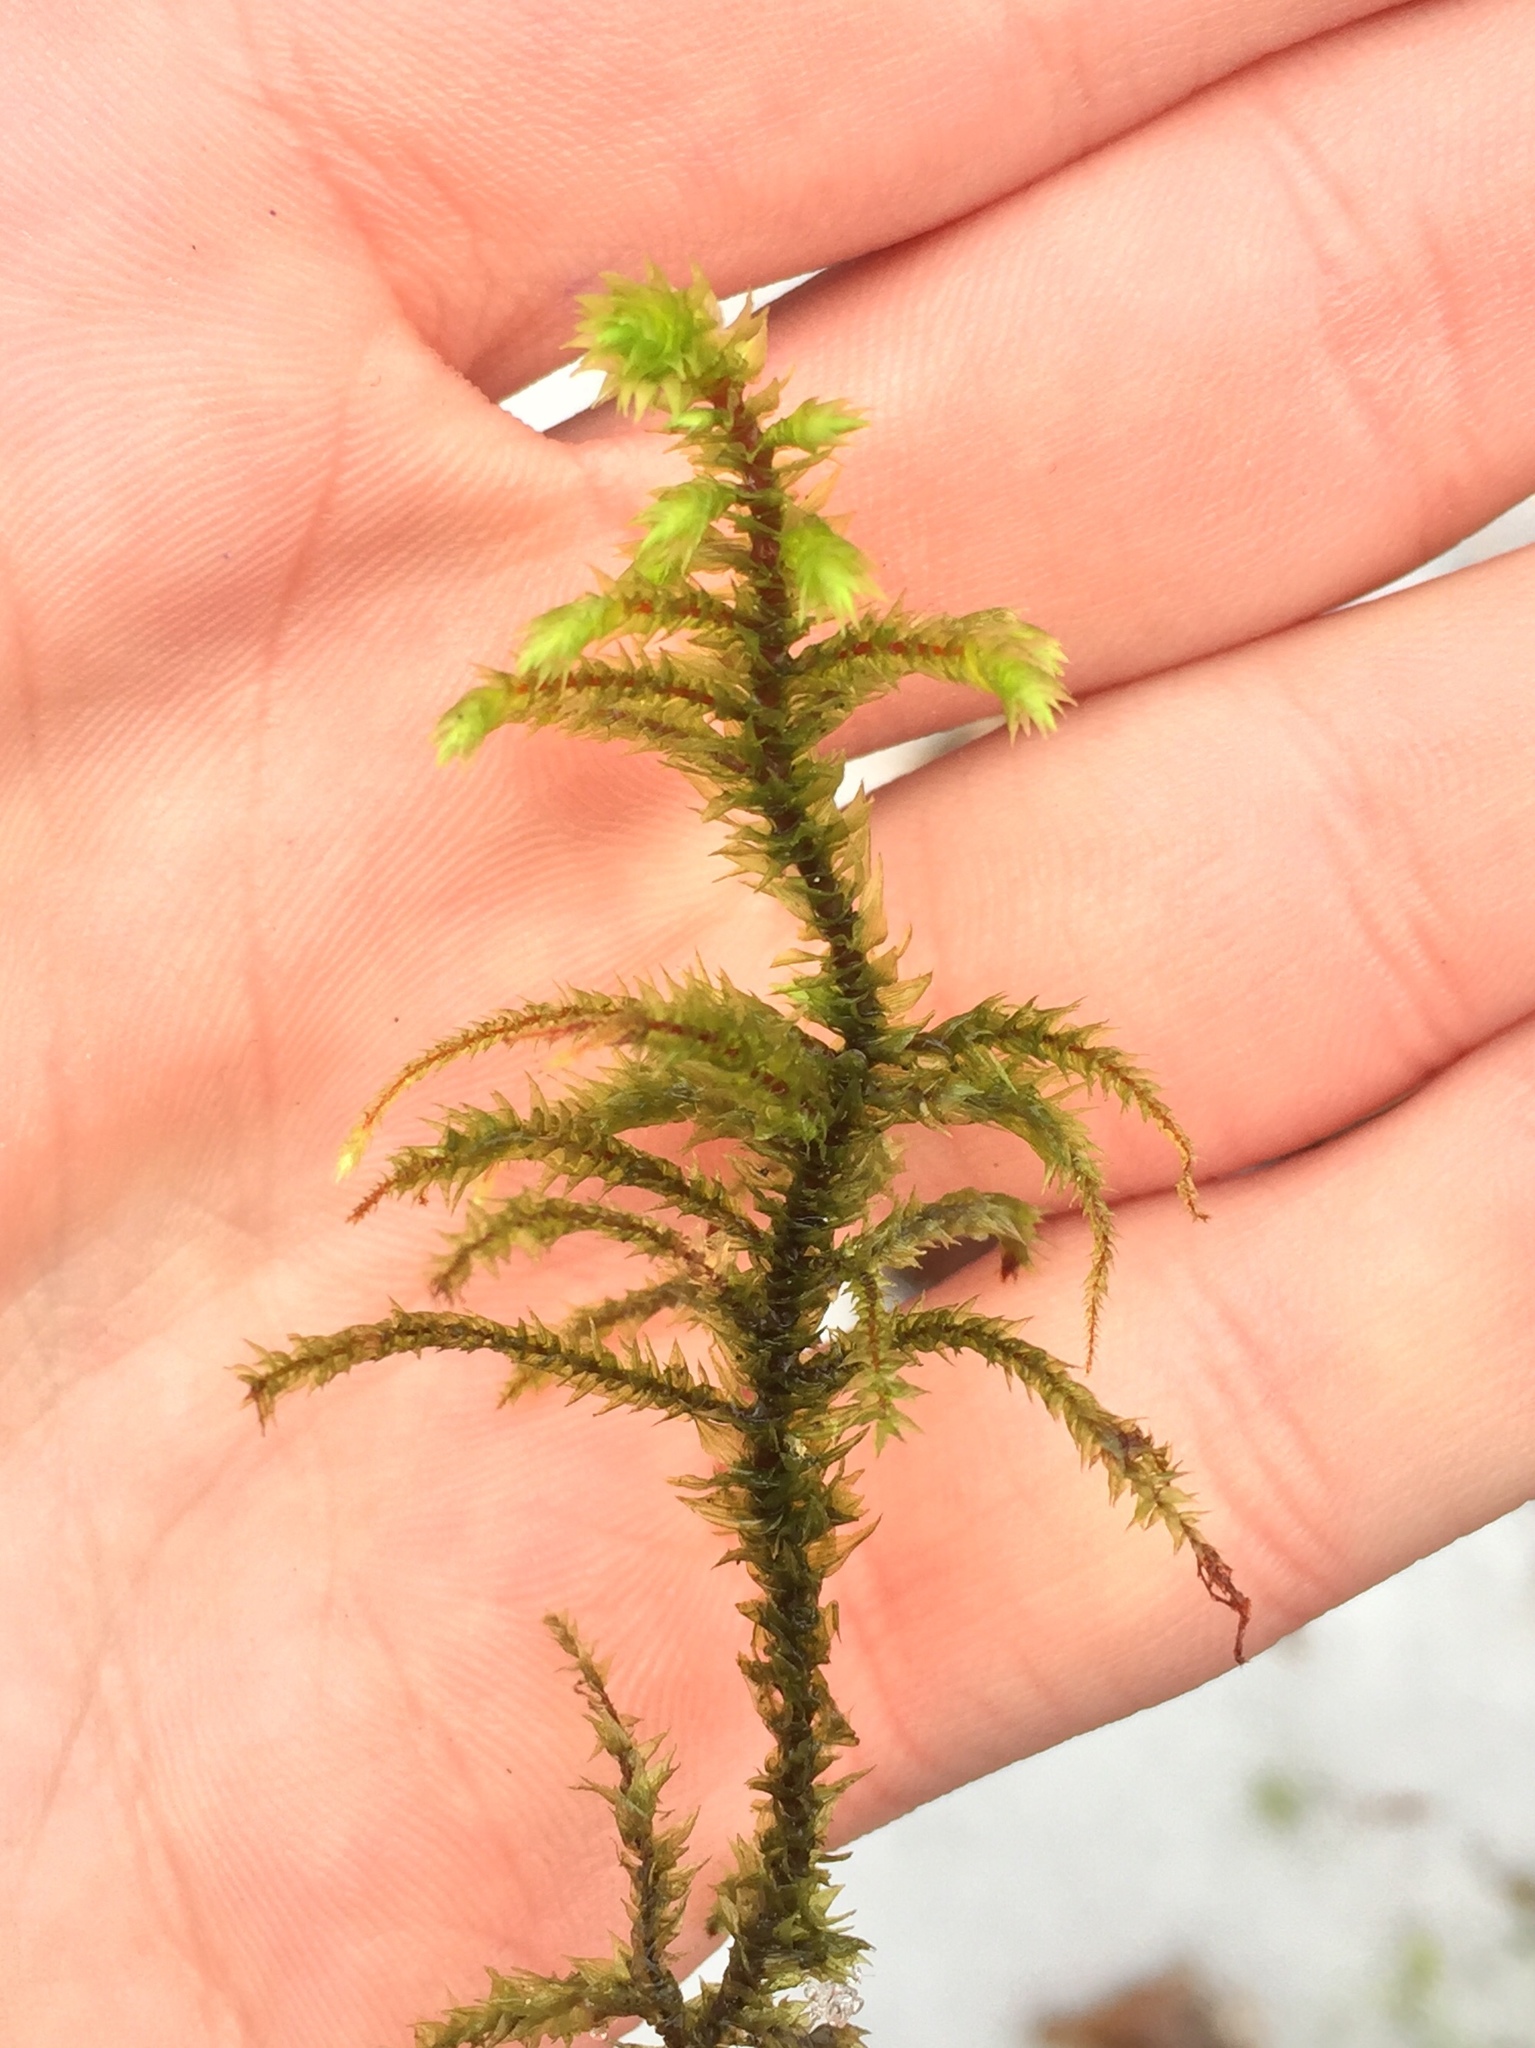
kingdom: Plantae
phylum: Bryophyta
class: Bryopsida
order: Hypnales
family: Hylocomiaceae
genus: Hylocomiadelphus
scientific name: Hylocomiadelphus triquetrus
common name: Rough goose neck moss
